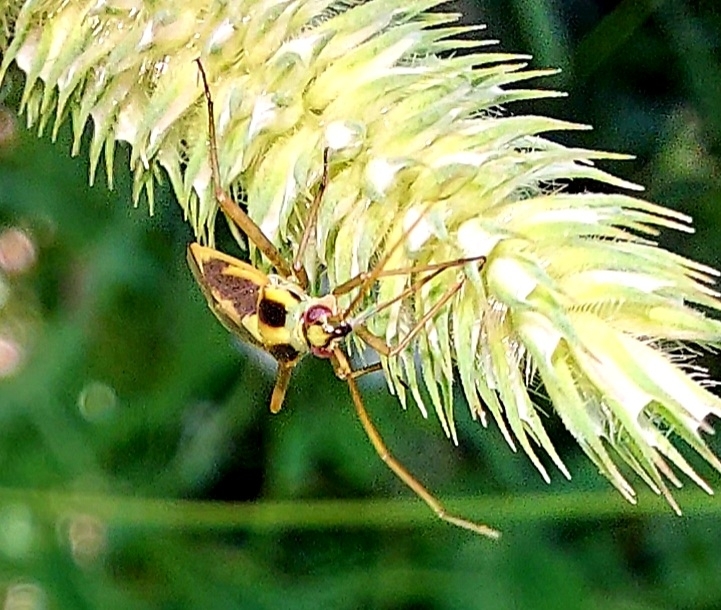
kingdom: Animalia
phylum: Arthropoda
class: Insecta
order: Hemiptera
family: Miridae
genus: Stenotus
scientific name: Stenotus binotatus
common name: Plant bug
